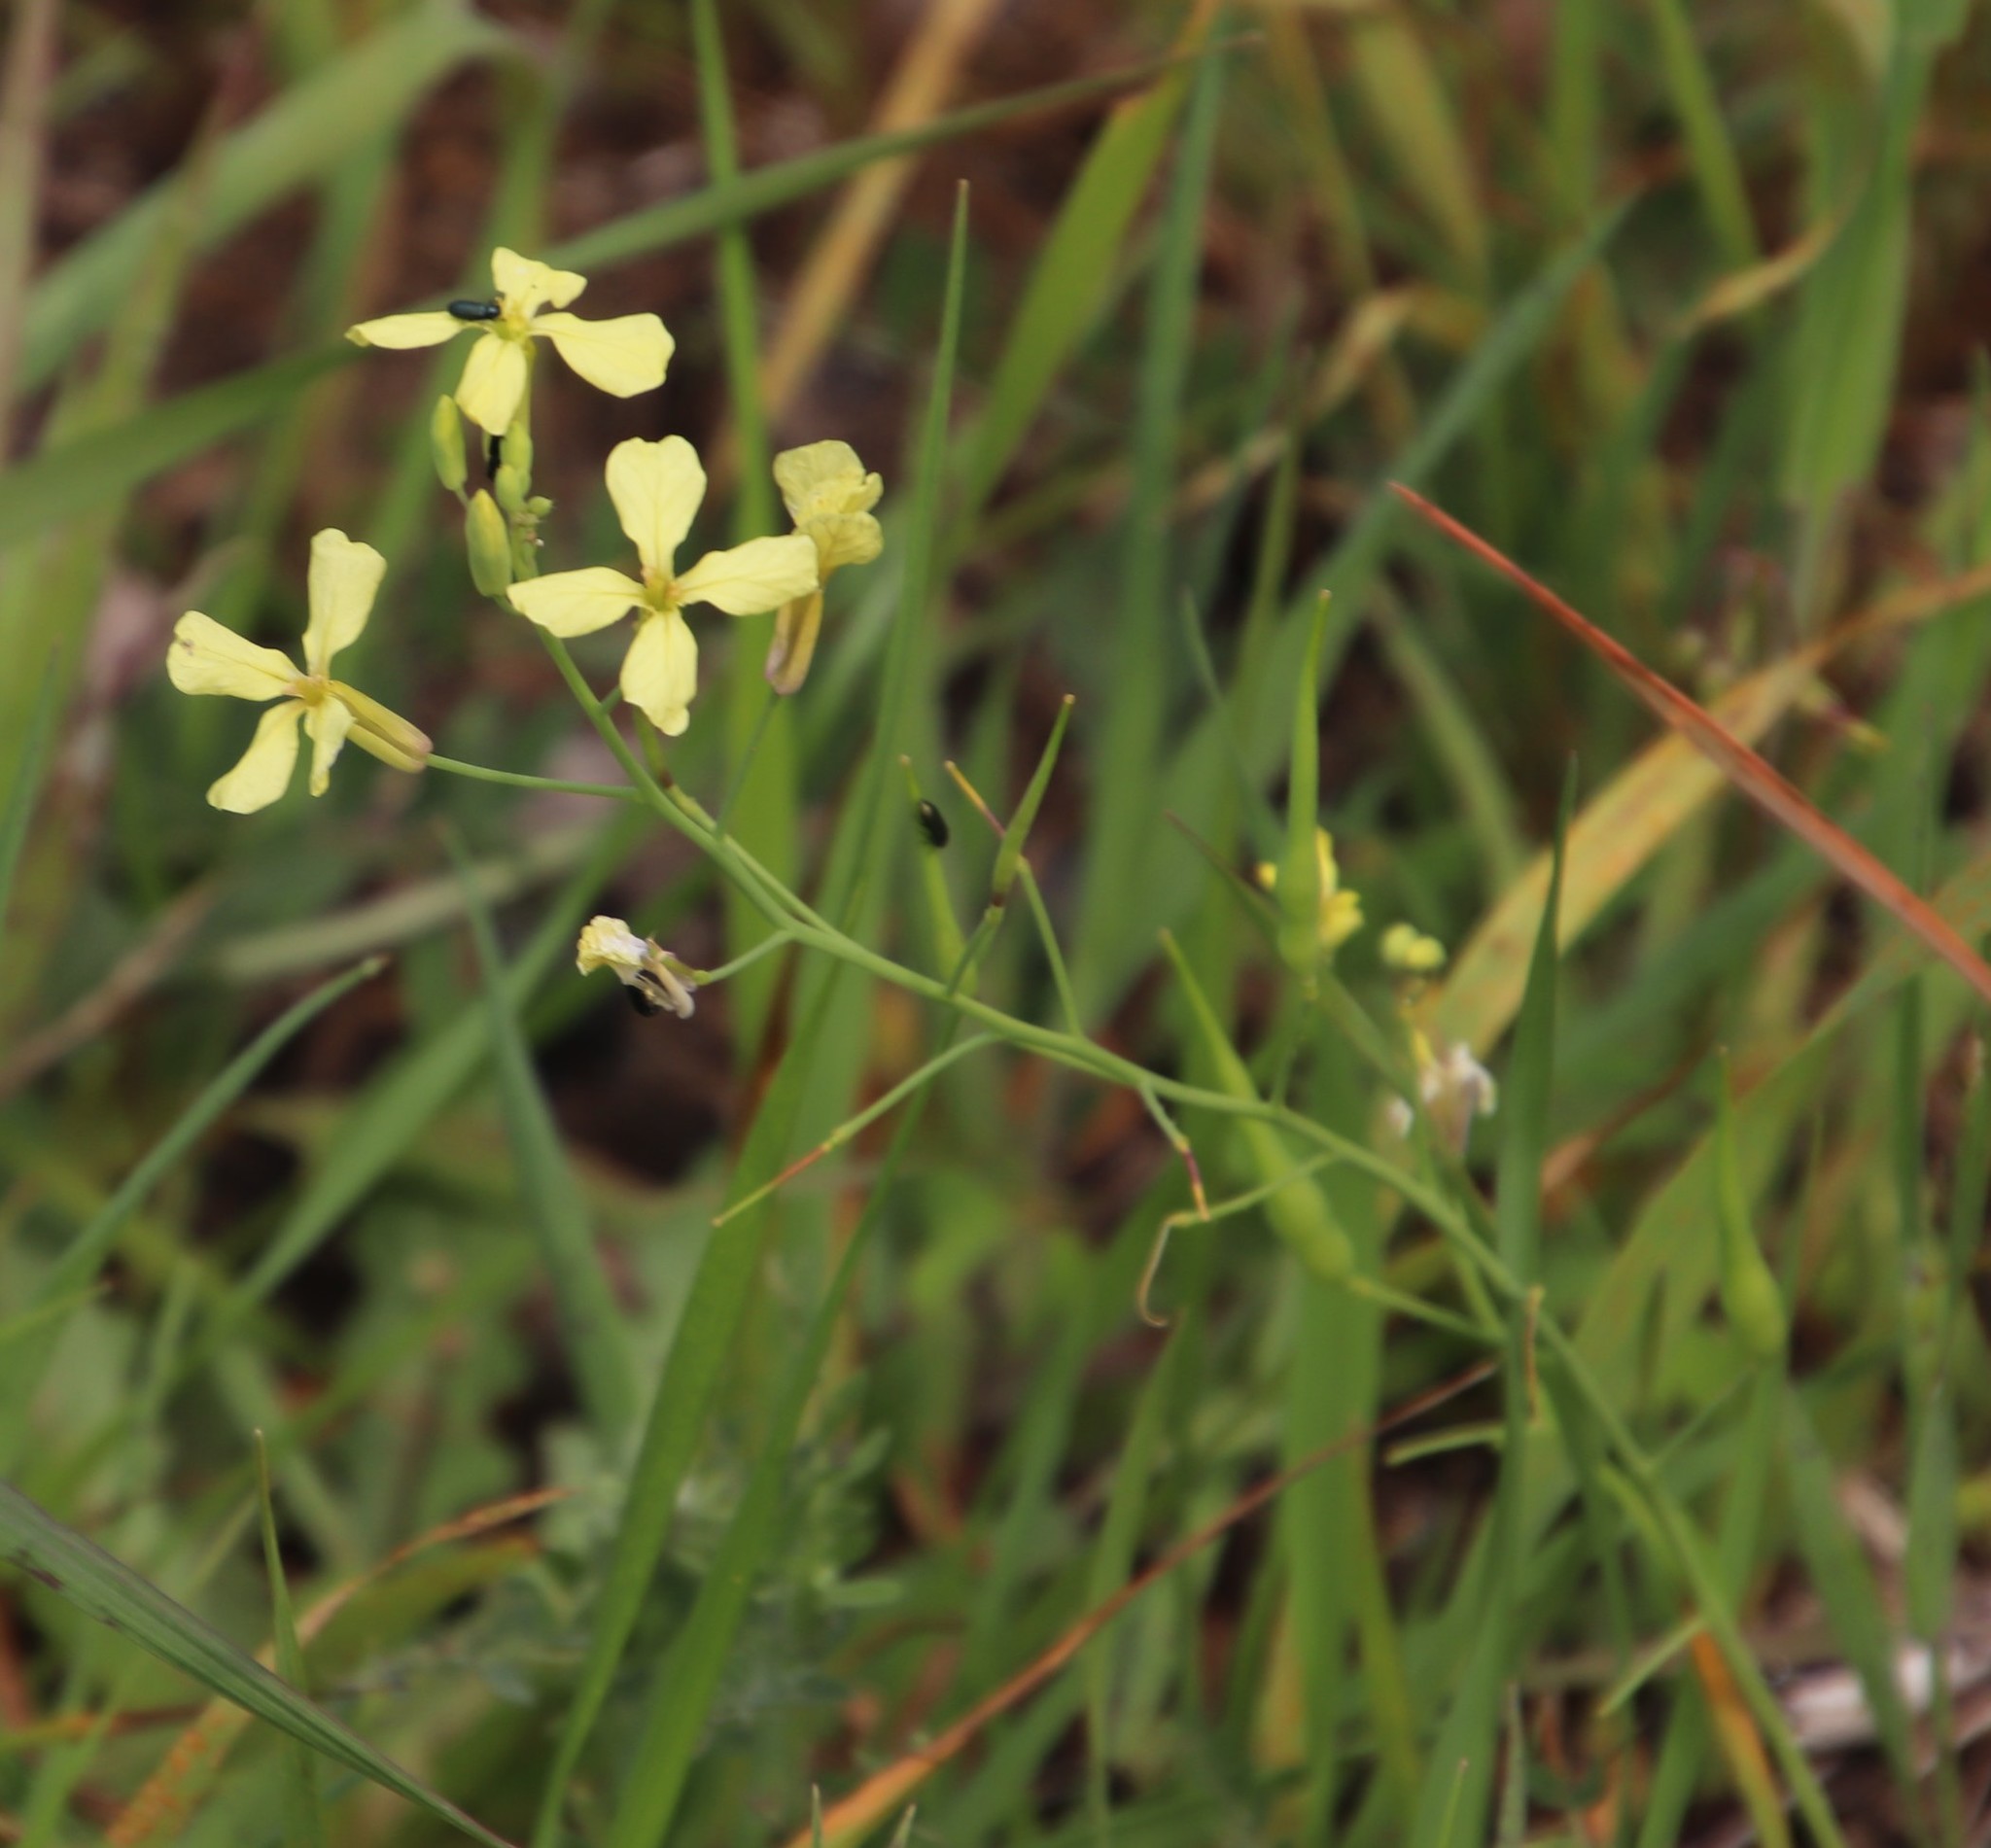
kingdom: Plantae
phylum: Tracheophyta
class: Magnoliopsida
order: Brassicales
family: Brassicaceae
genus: Raphanus
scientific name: Raphanus raphanistrum
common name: Wild radish
